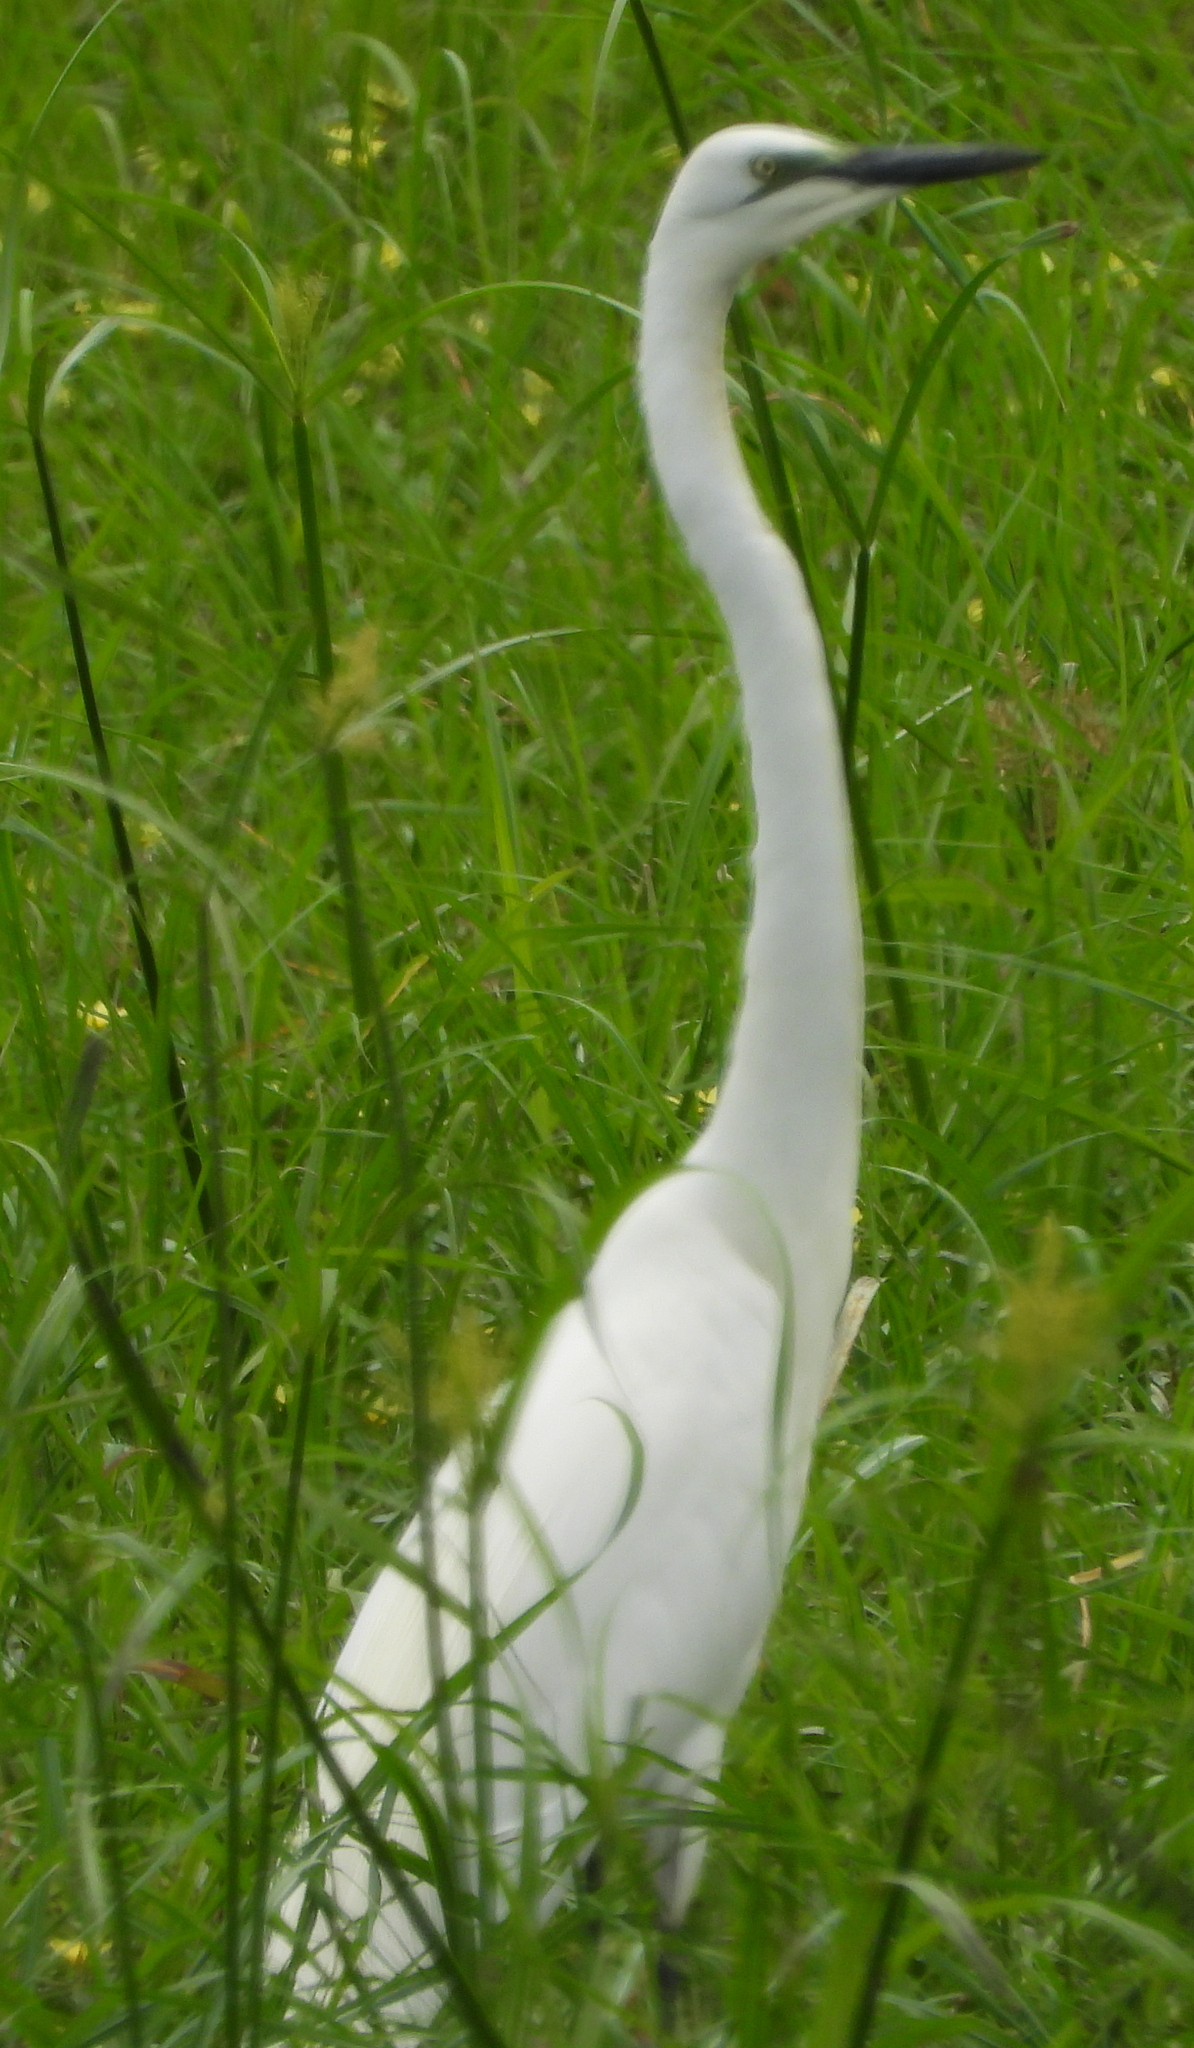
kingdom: Animalia
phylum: Chordata
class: Aves
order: Pelecaniformes
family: Ardeidae
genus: Ardea
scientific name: Ardea alba
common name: Great egret
